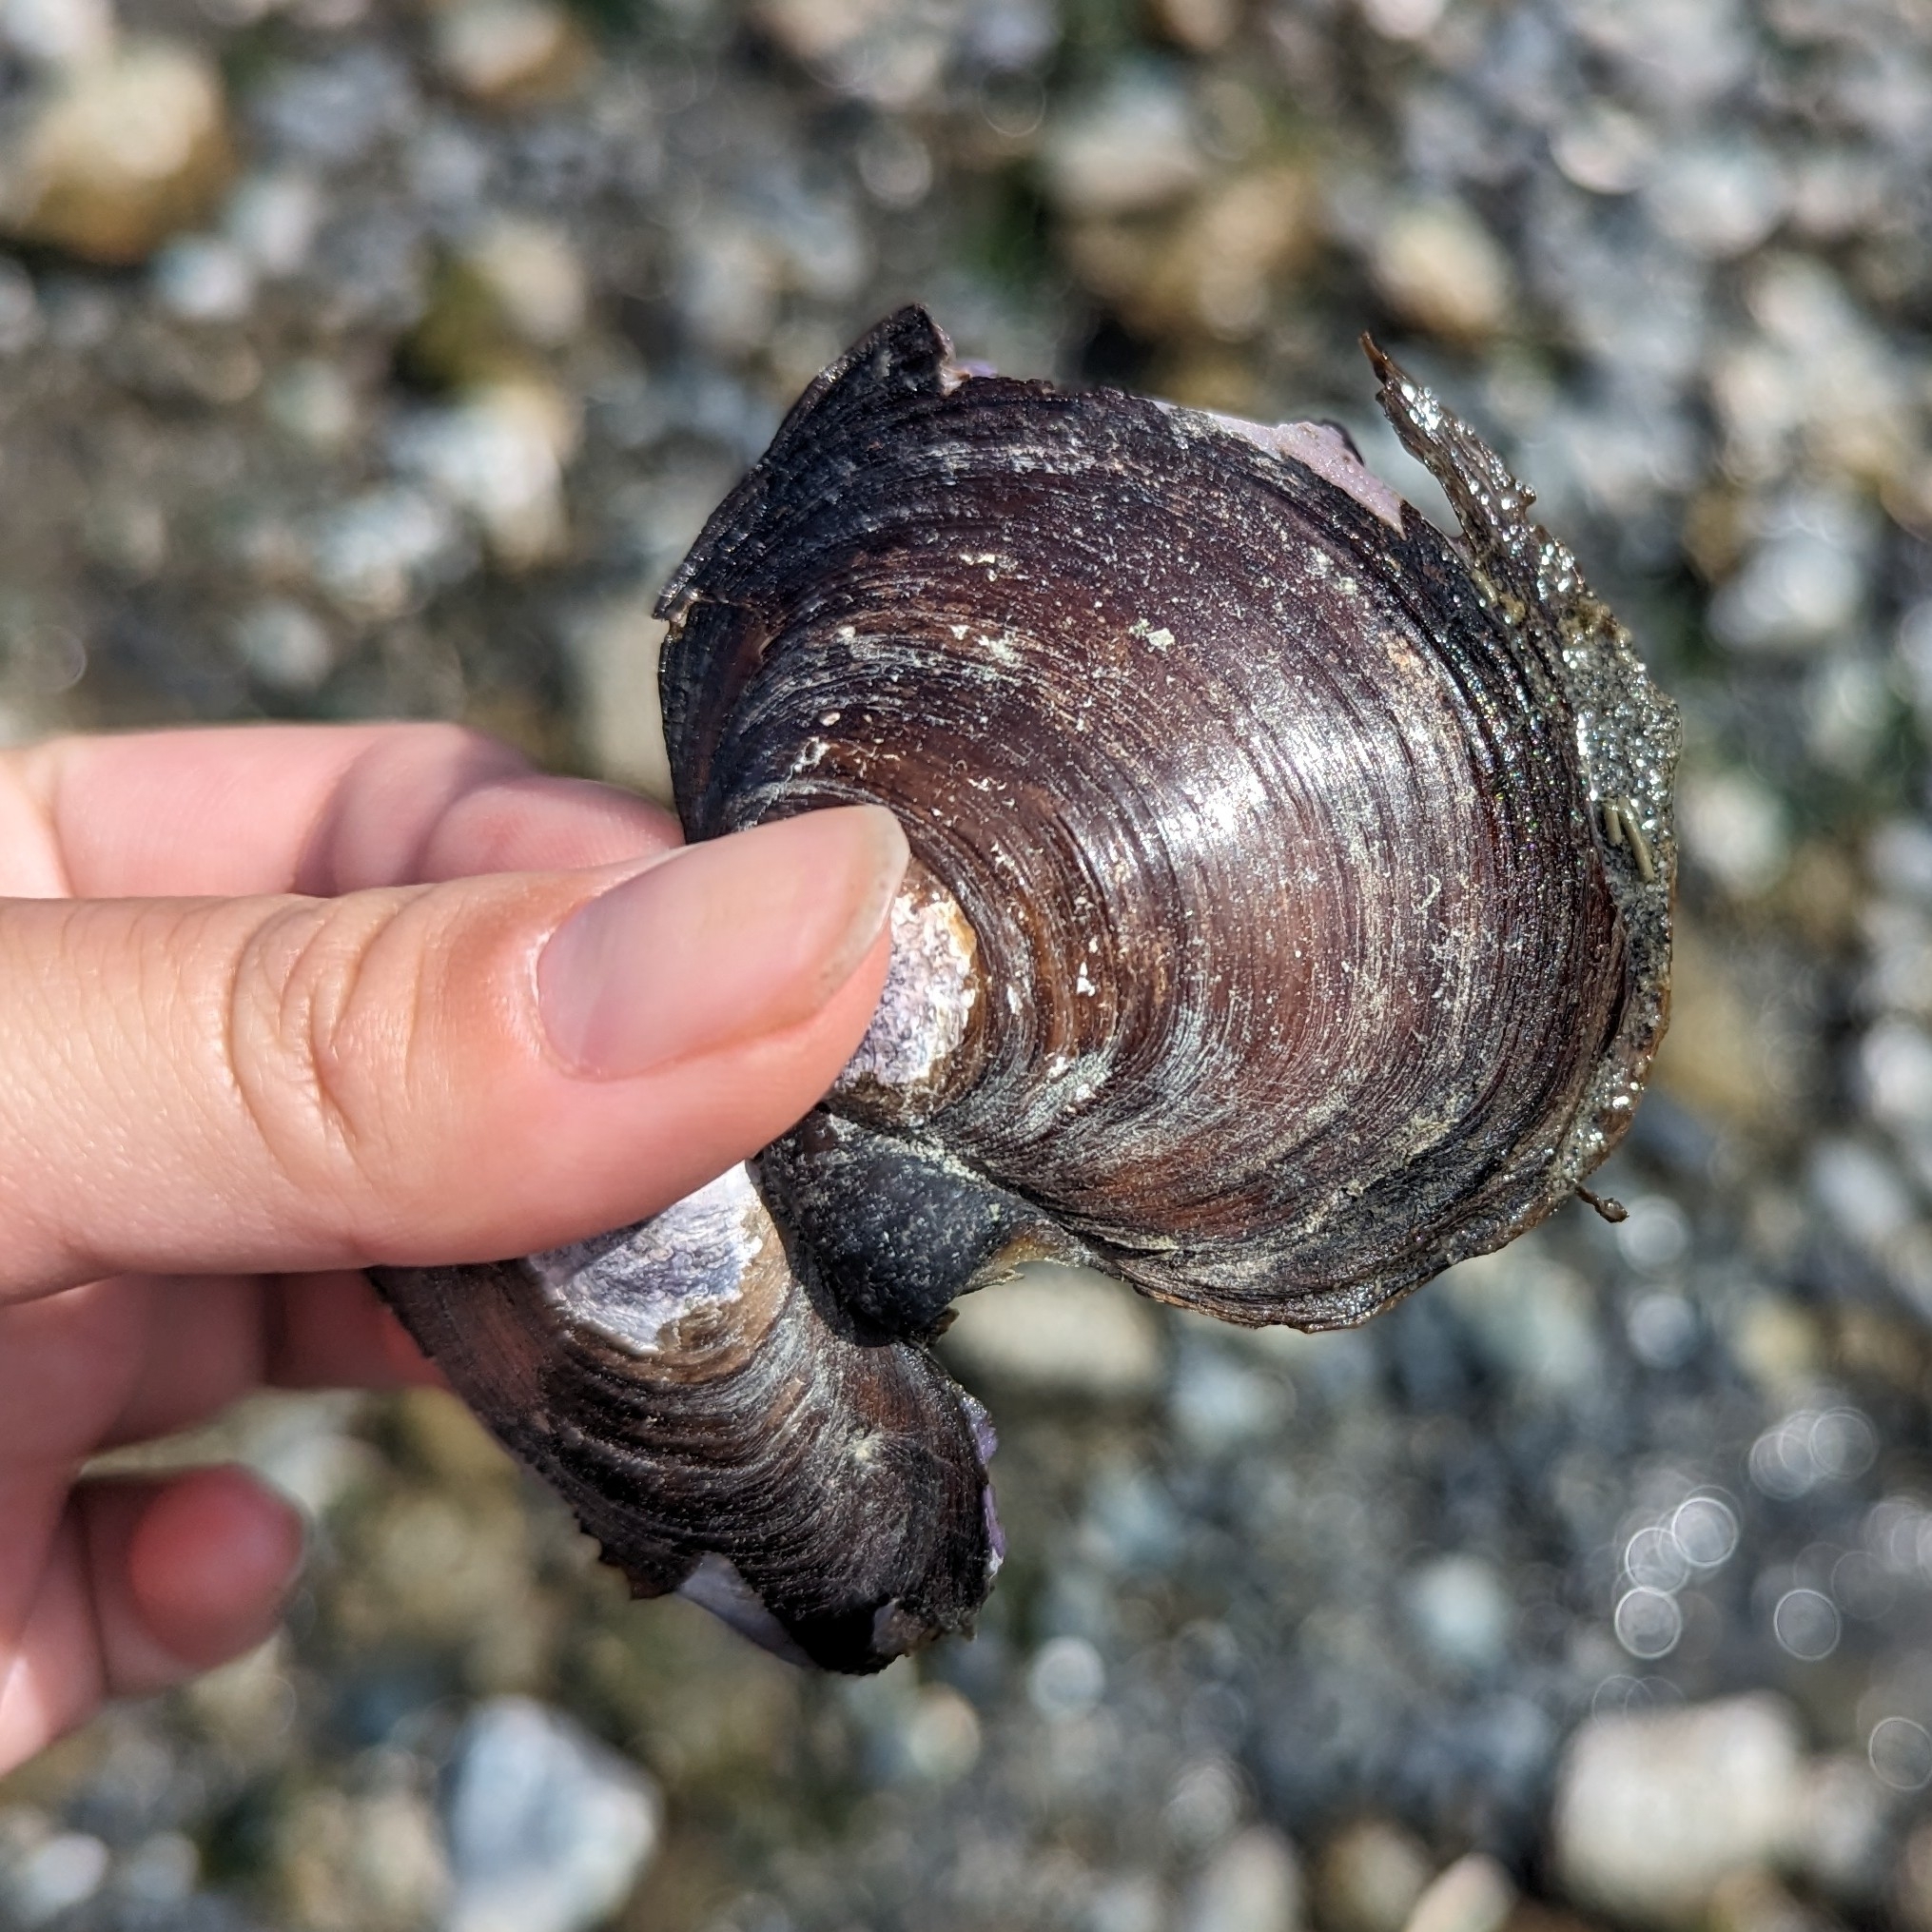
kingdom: Animalia
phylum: Mollusca
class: Bivalvia
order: Cardiida
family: Psammobiidae
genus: Nuttallia
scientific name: Nuttallia obscurata
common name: Purple mahogany-clam
